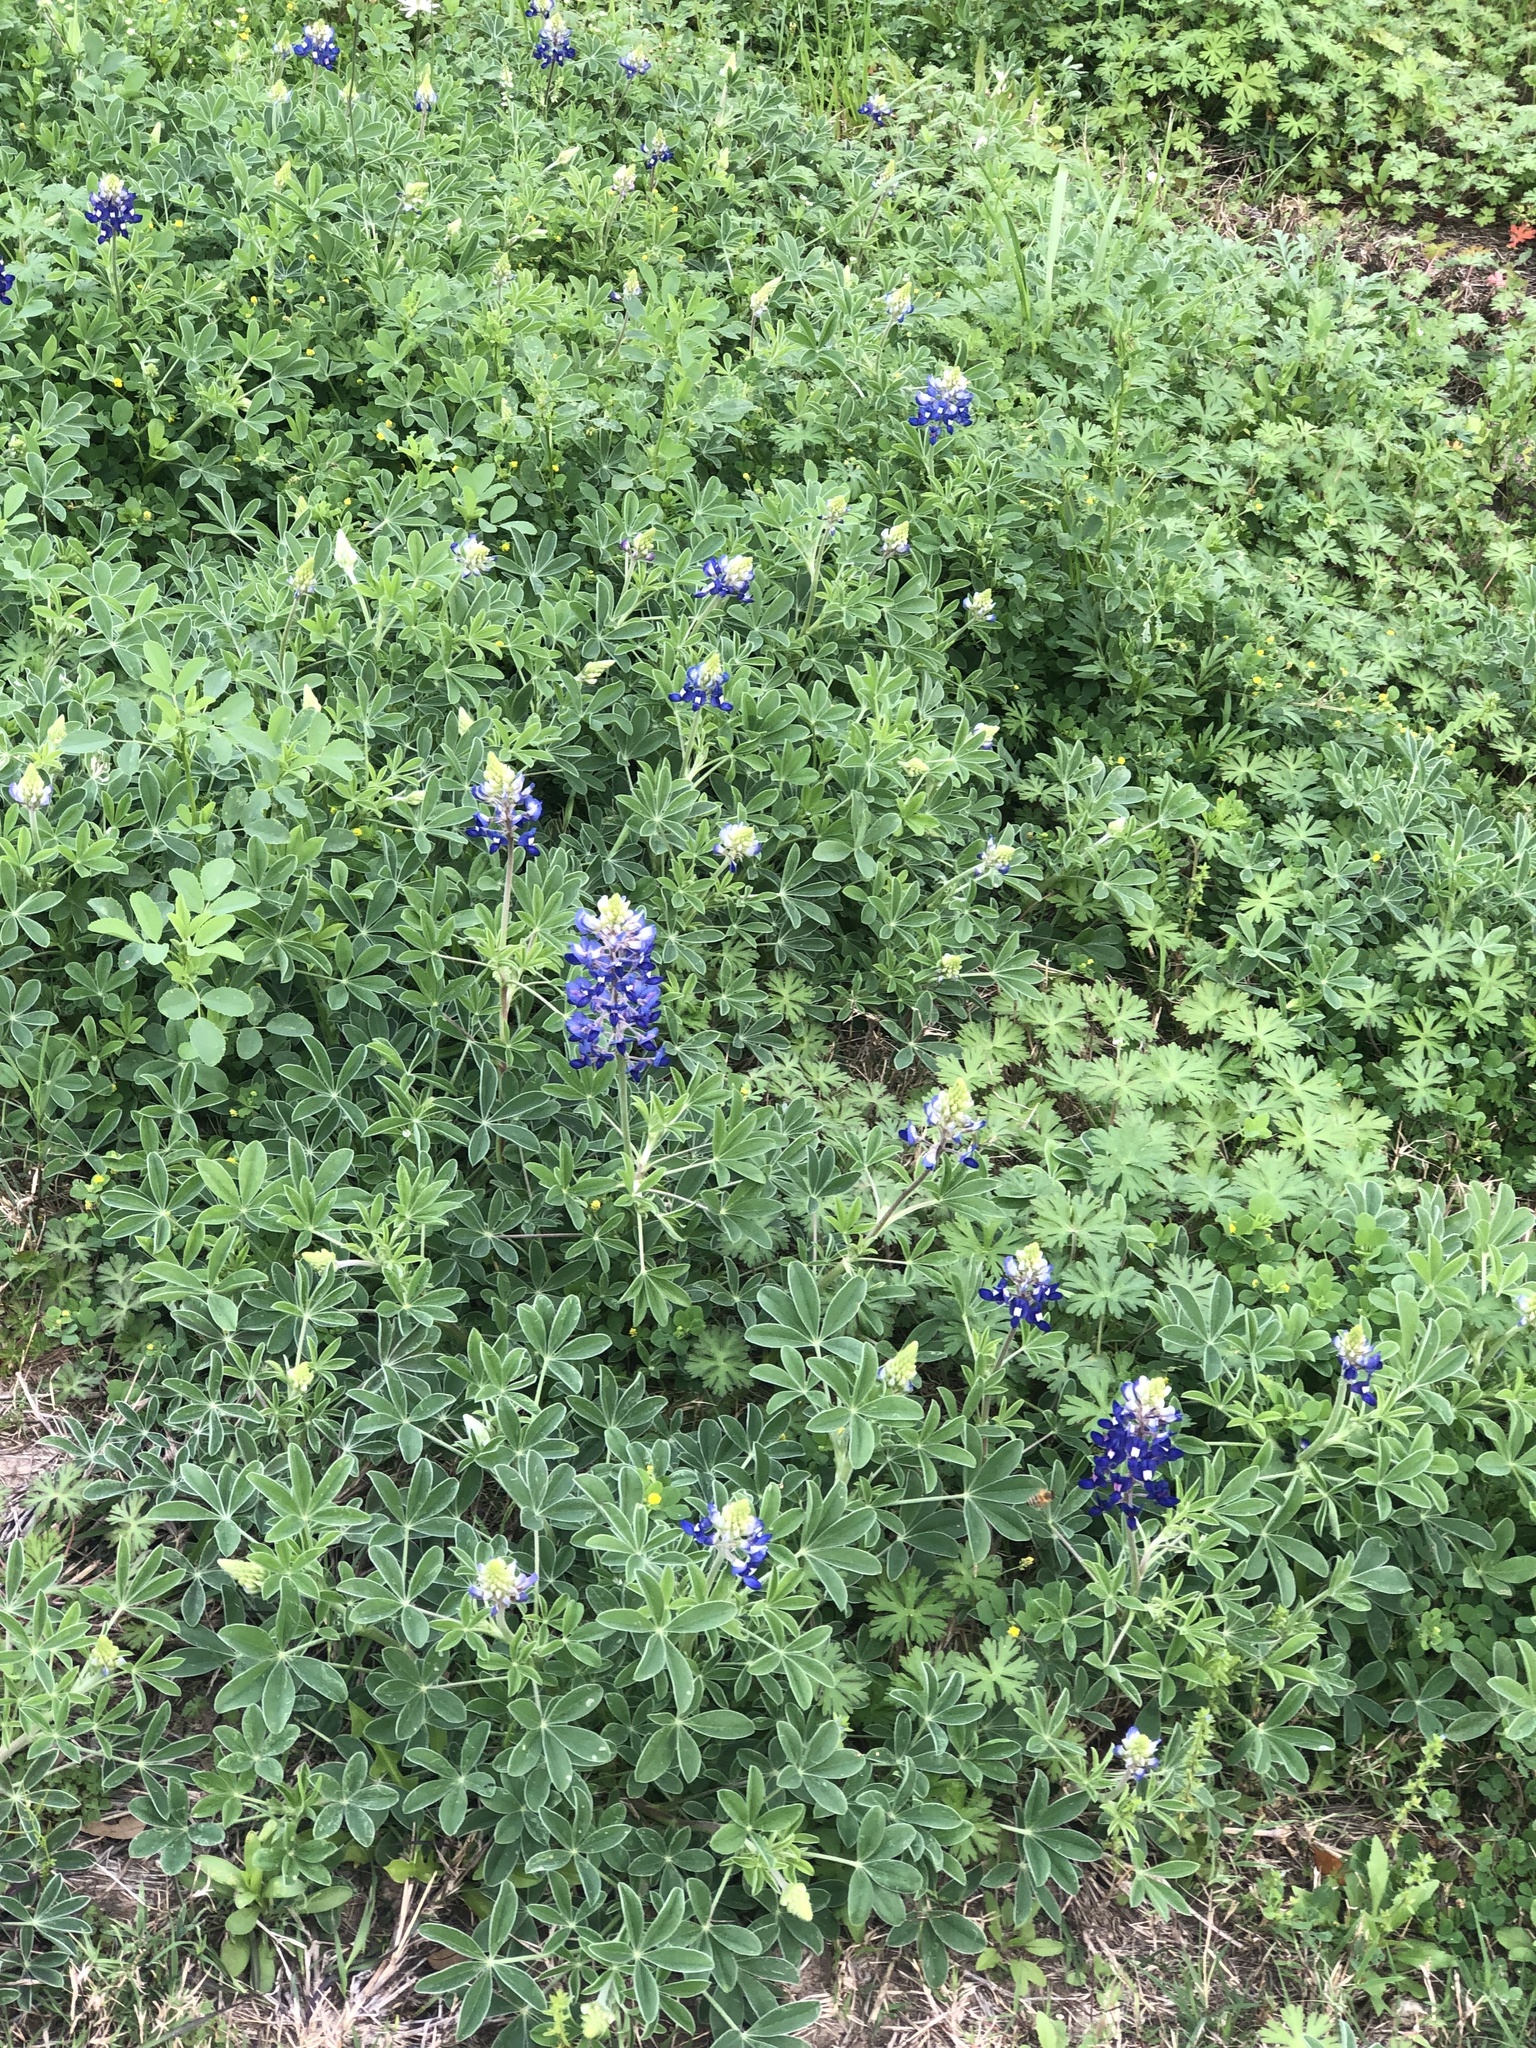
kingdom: Plantae
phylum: Tracheophyta
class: Magnoliopsida
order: Fabales
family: Fabaceae
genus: Lupinus
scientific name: Lupinus texensis
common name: Texas bluebonnet
